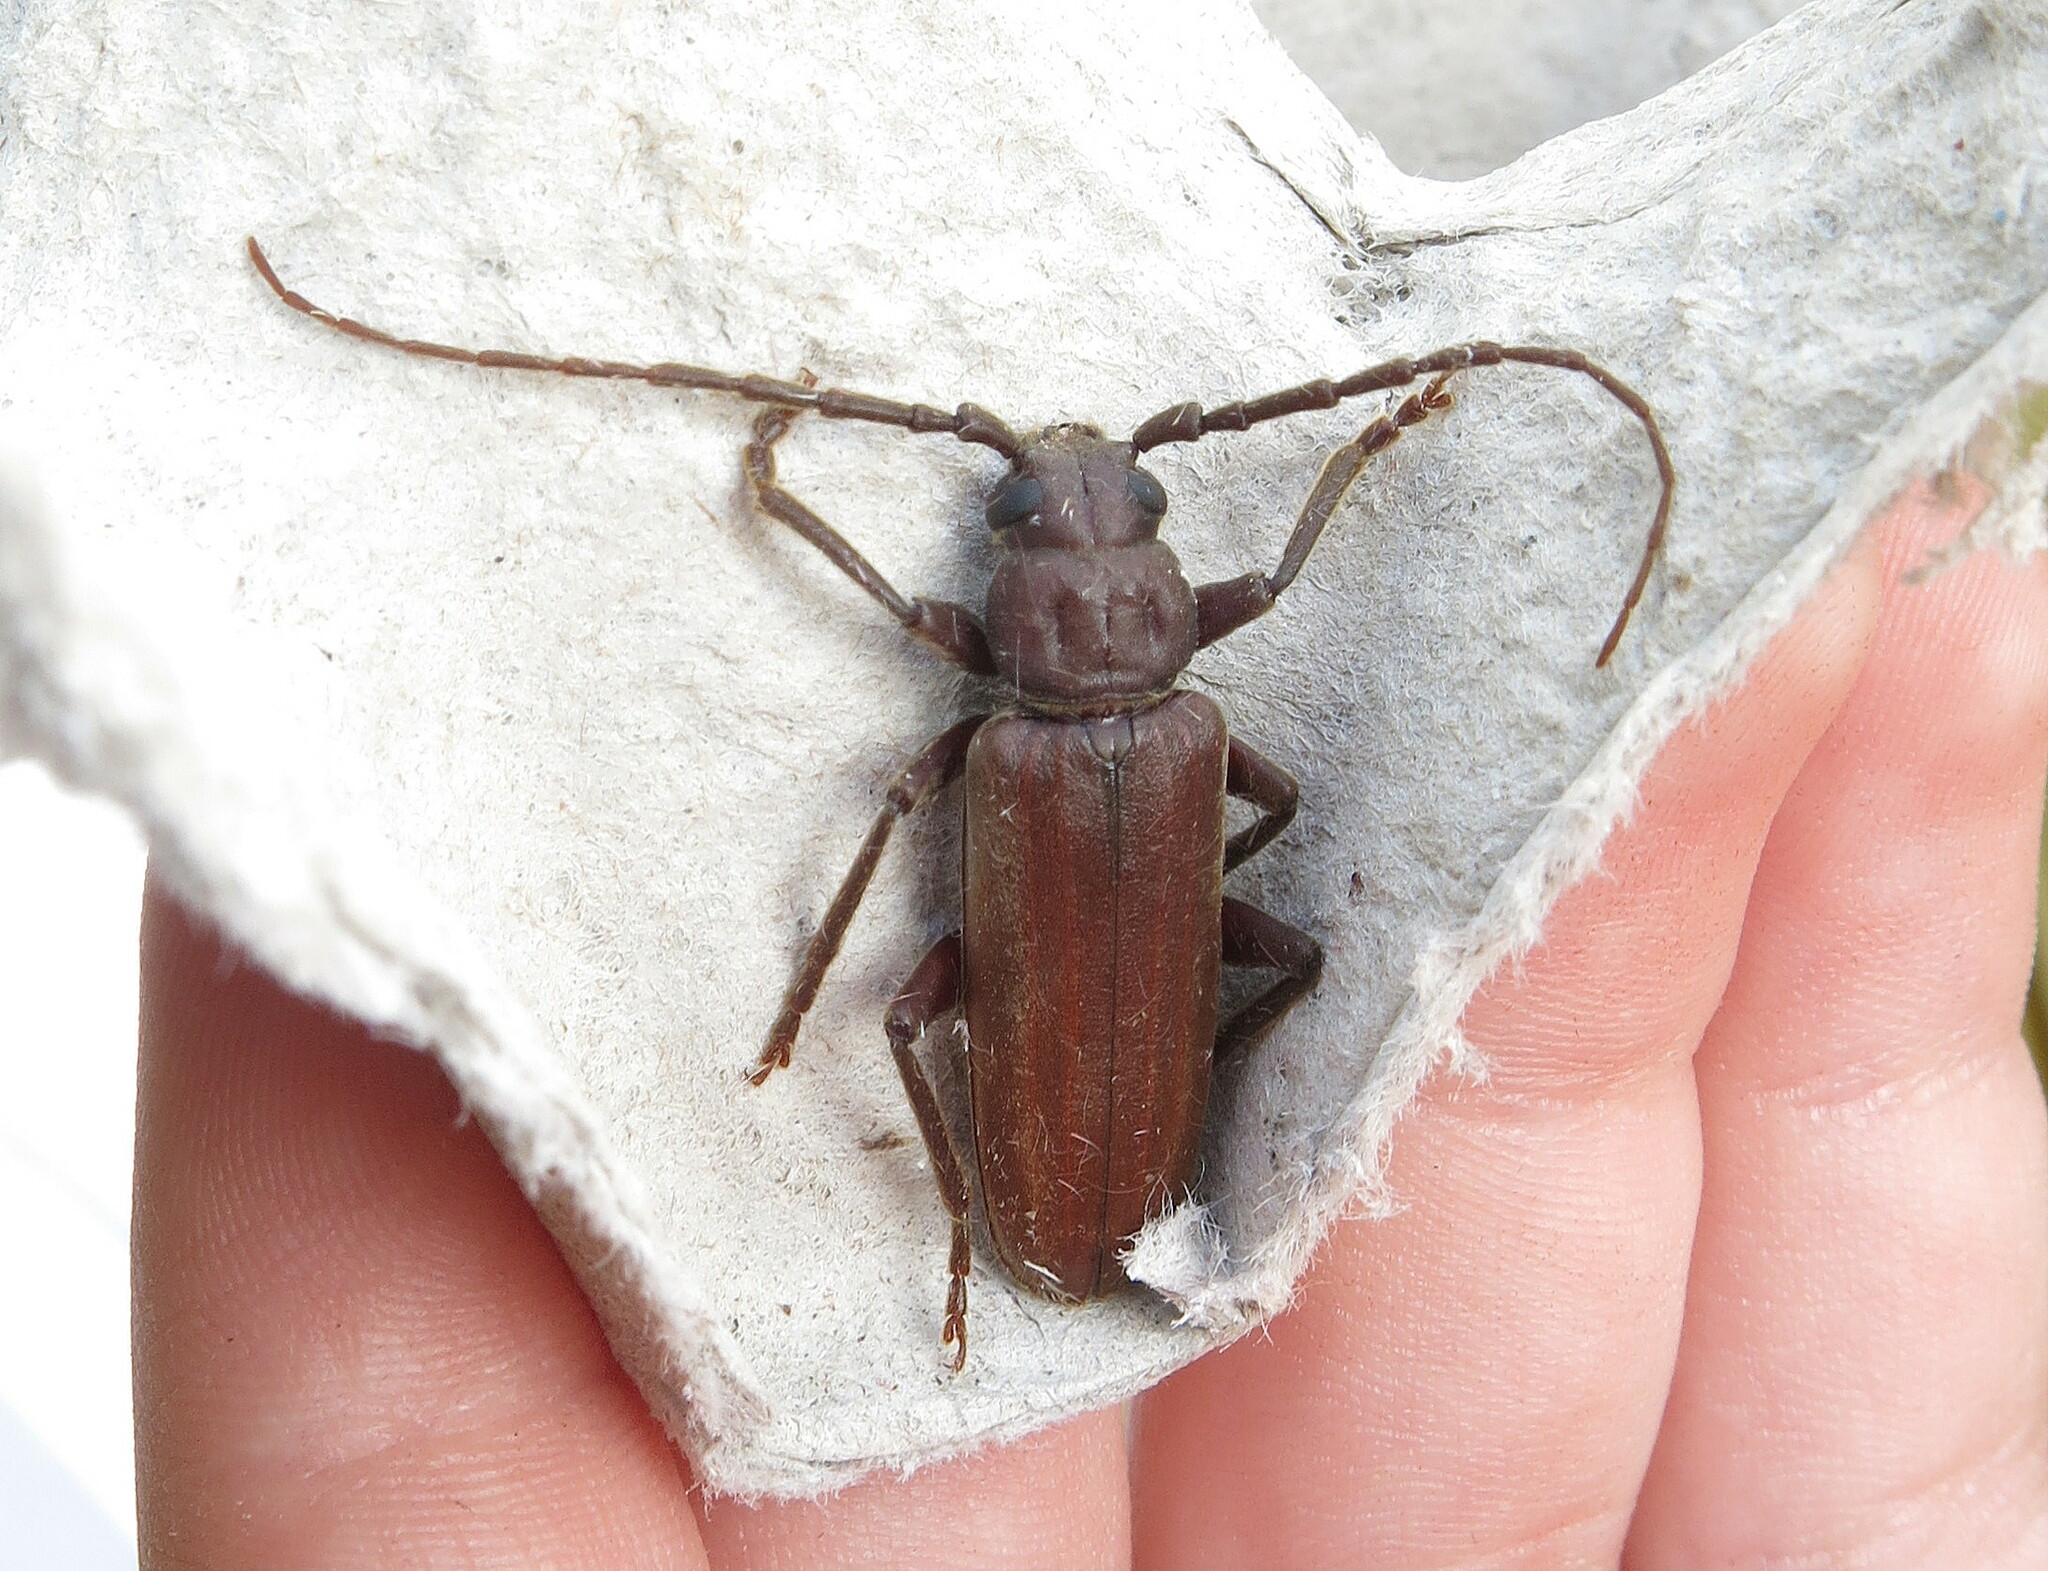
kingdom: Animalia
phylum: Arthropoda
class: Insecta
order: Lepidoptera
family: Noctuidae
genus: Bryophila
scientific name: Bryophila domestica
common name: Marbled beauty
